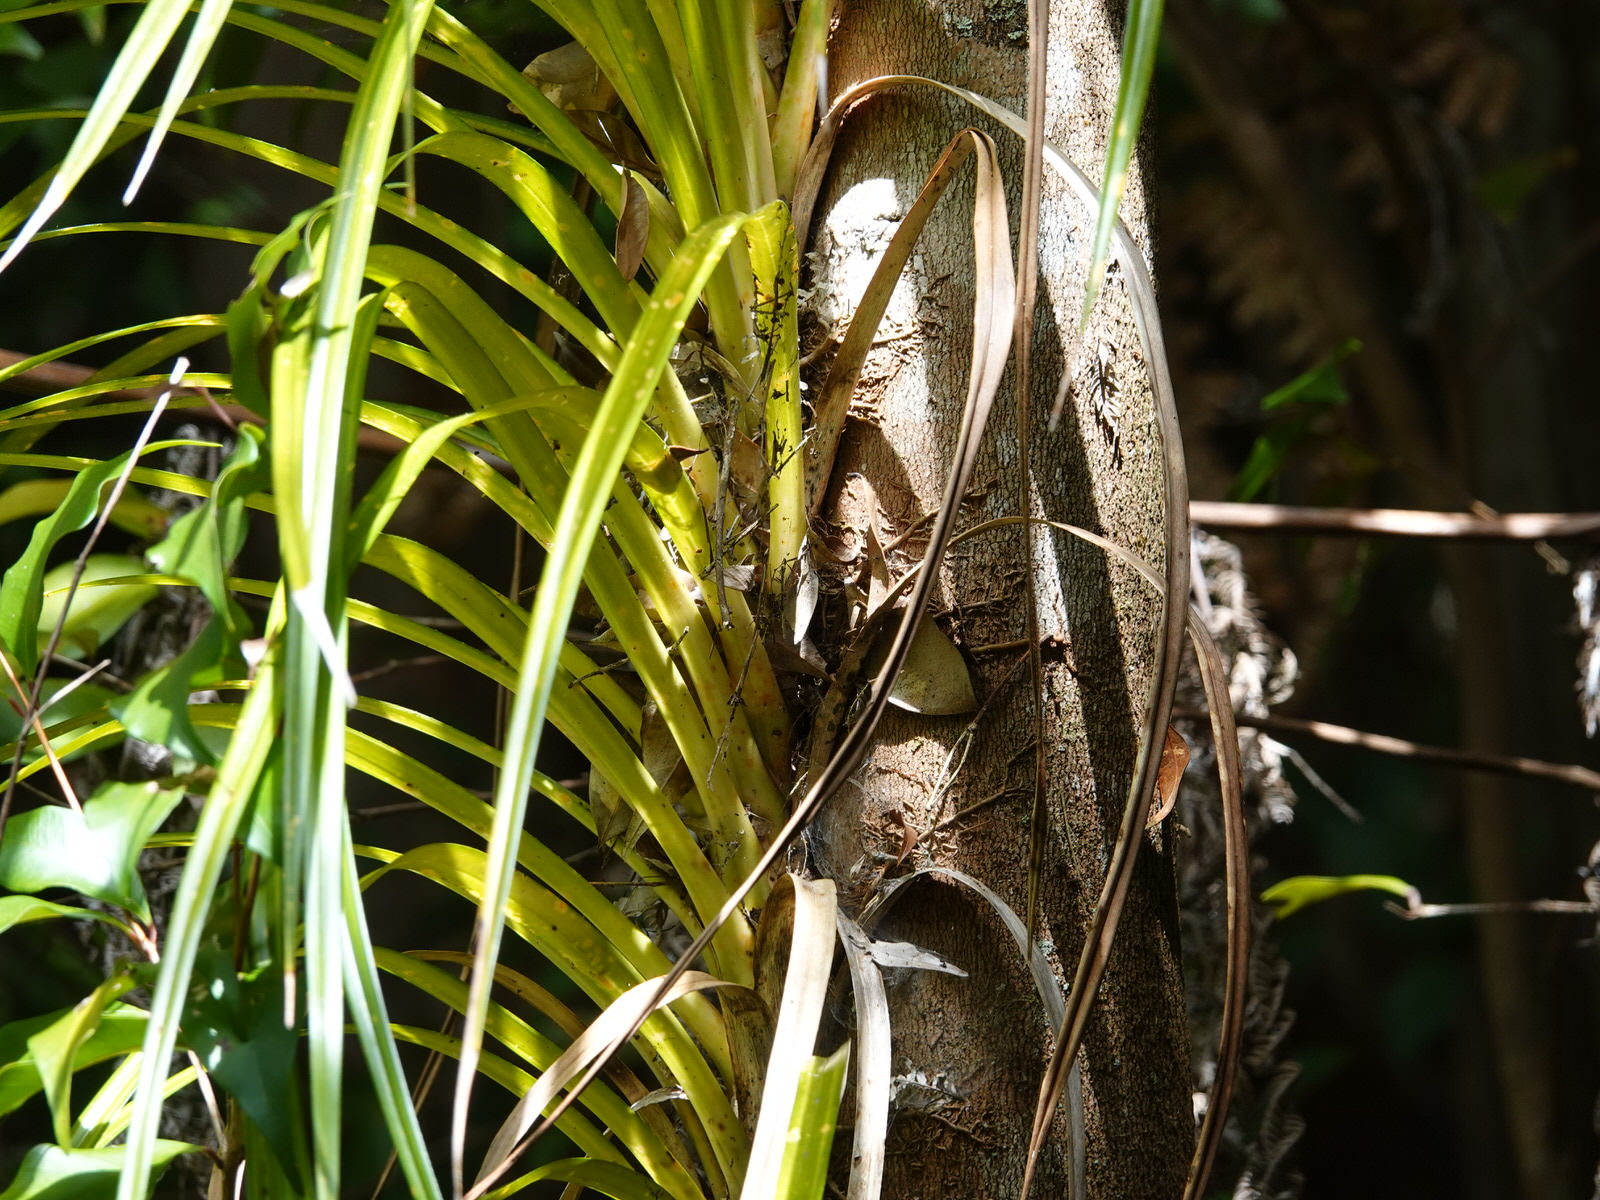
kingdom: Plantae
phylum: Tracheophyta
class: Liliopsida
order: Pandanales
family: Pandanaceae
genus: Freycinetia
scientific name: Freycinetia banksii
